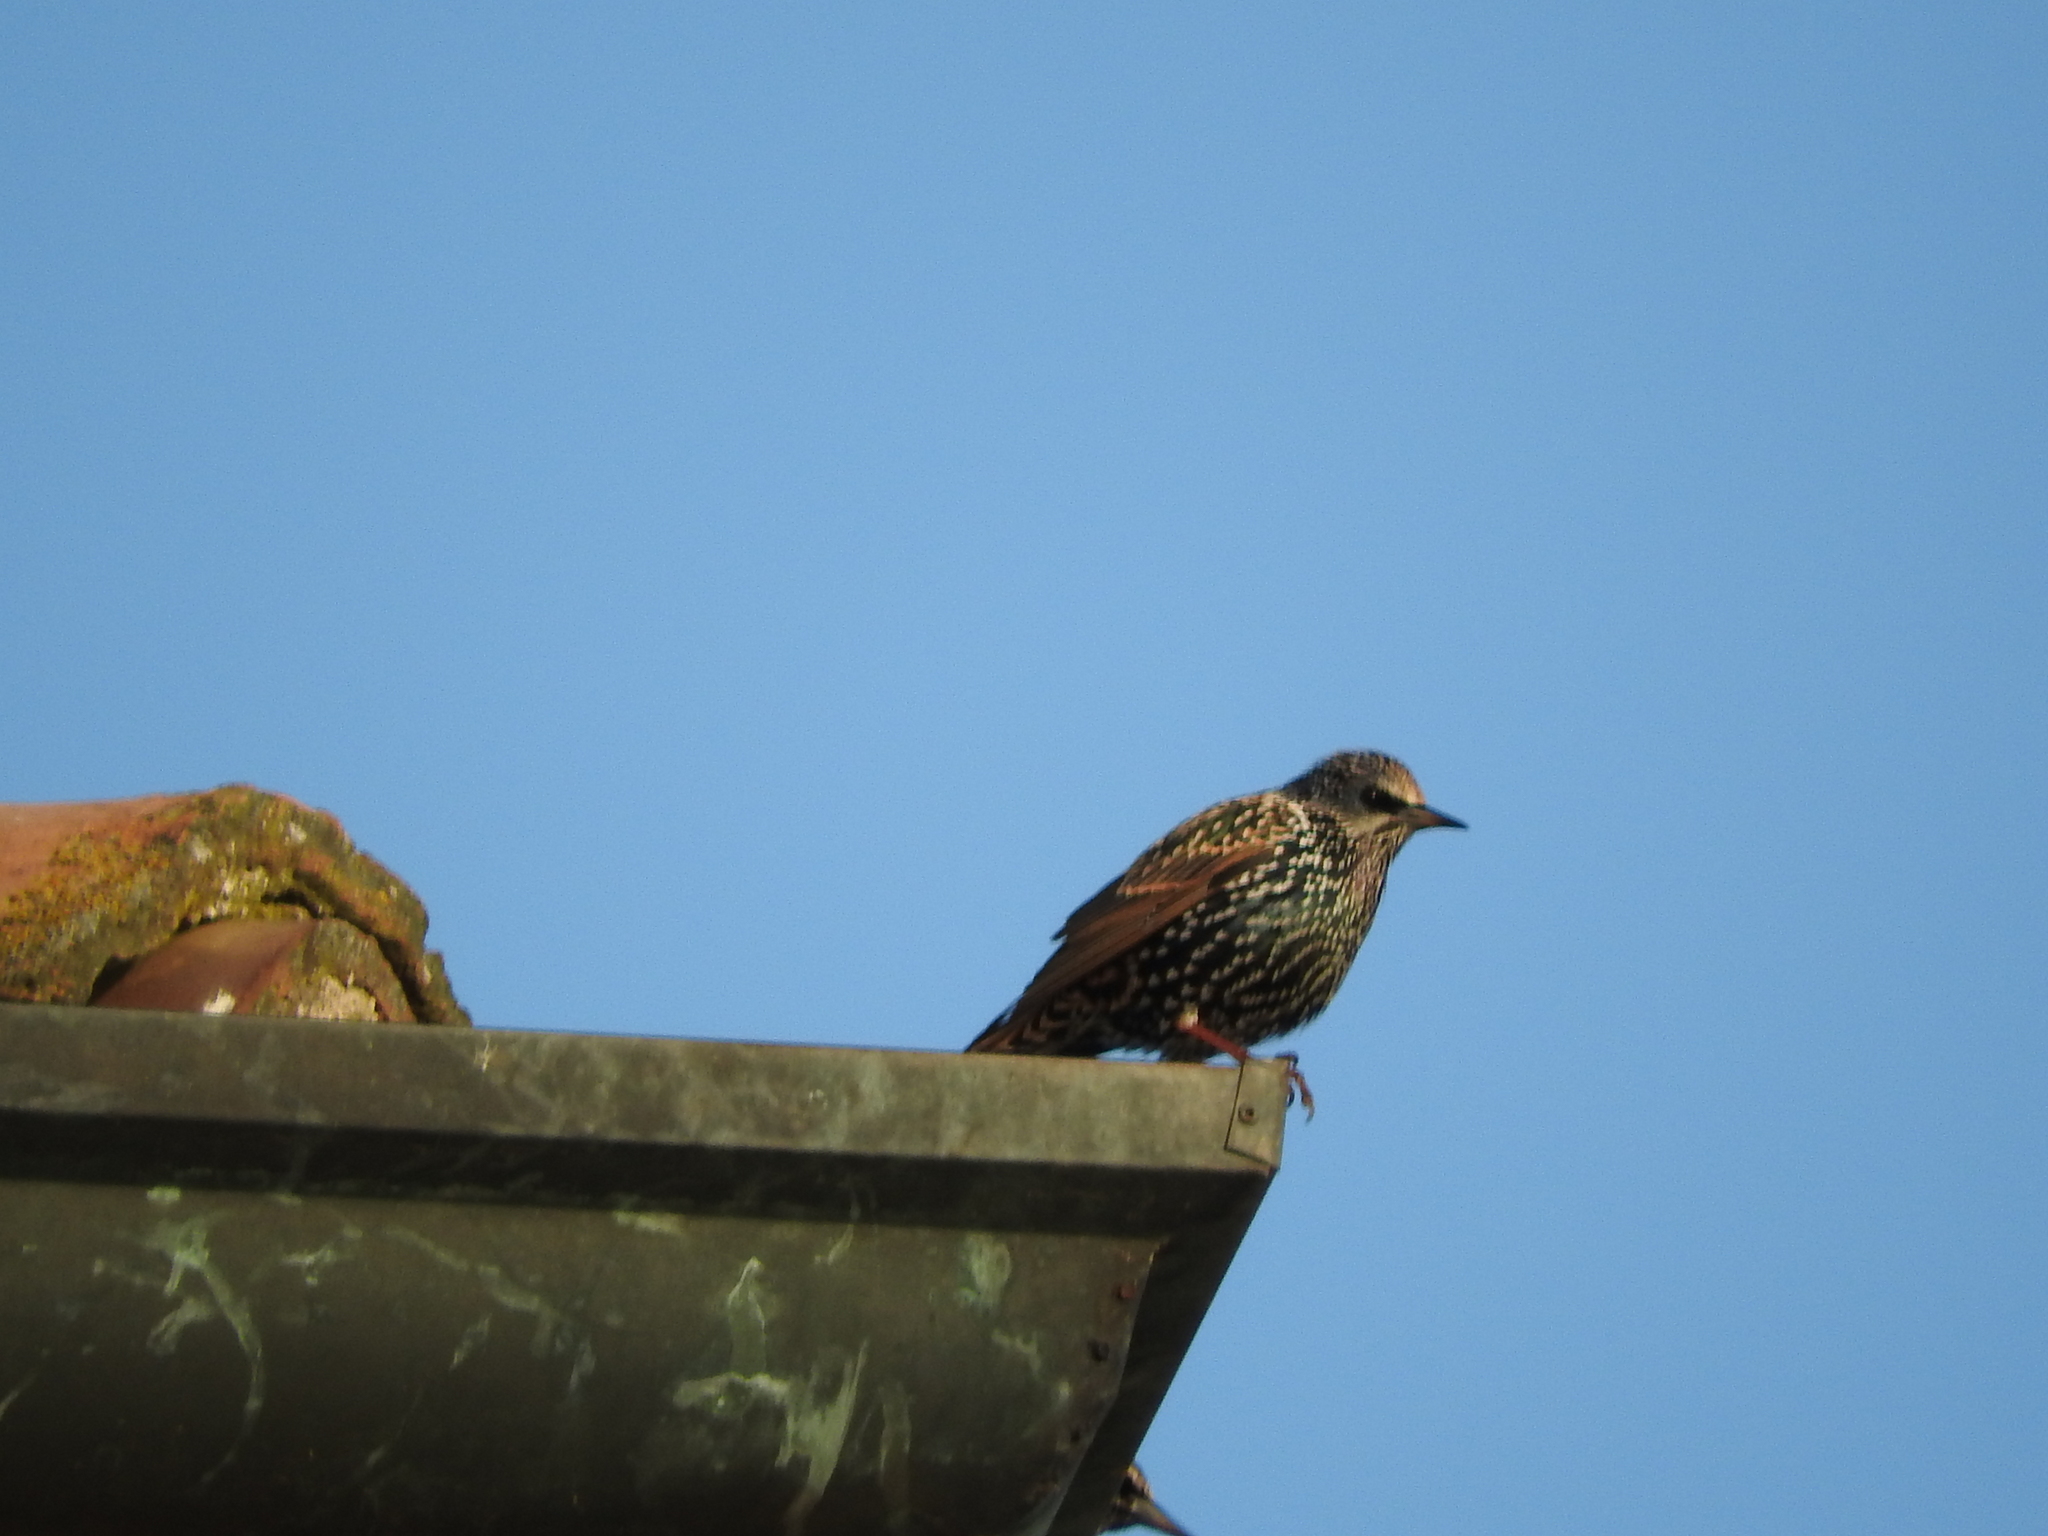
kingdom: Animalia
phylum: Chordata
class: Aves
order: Passeriformes
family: Sturnidae
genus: Sturnus
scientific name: Sturnus vulgaris
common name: Common starling
